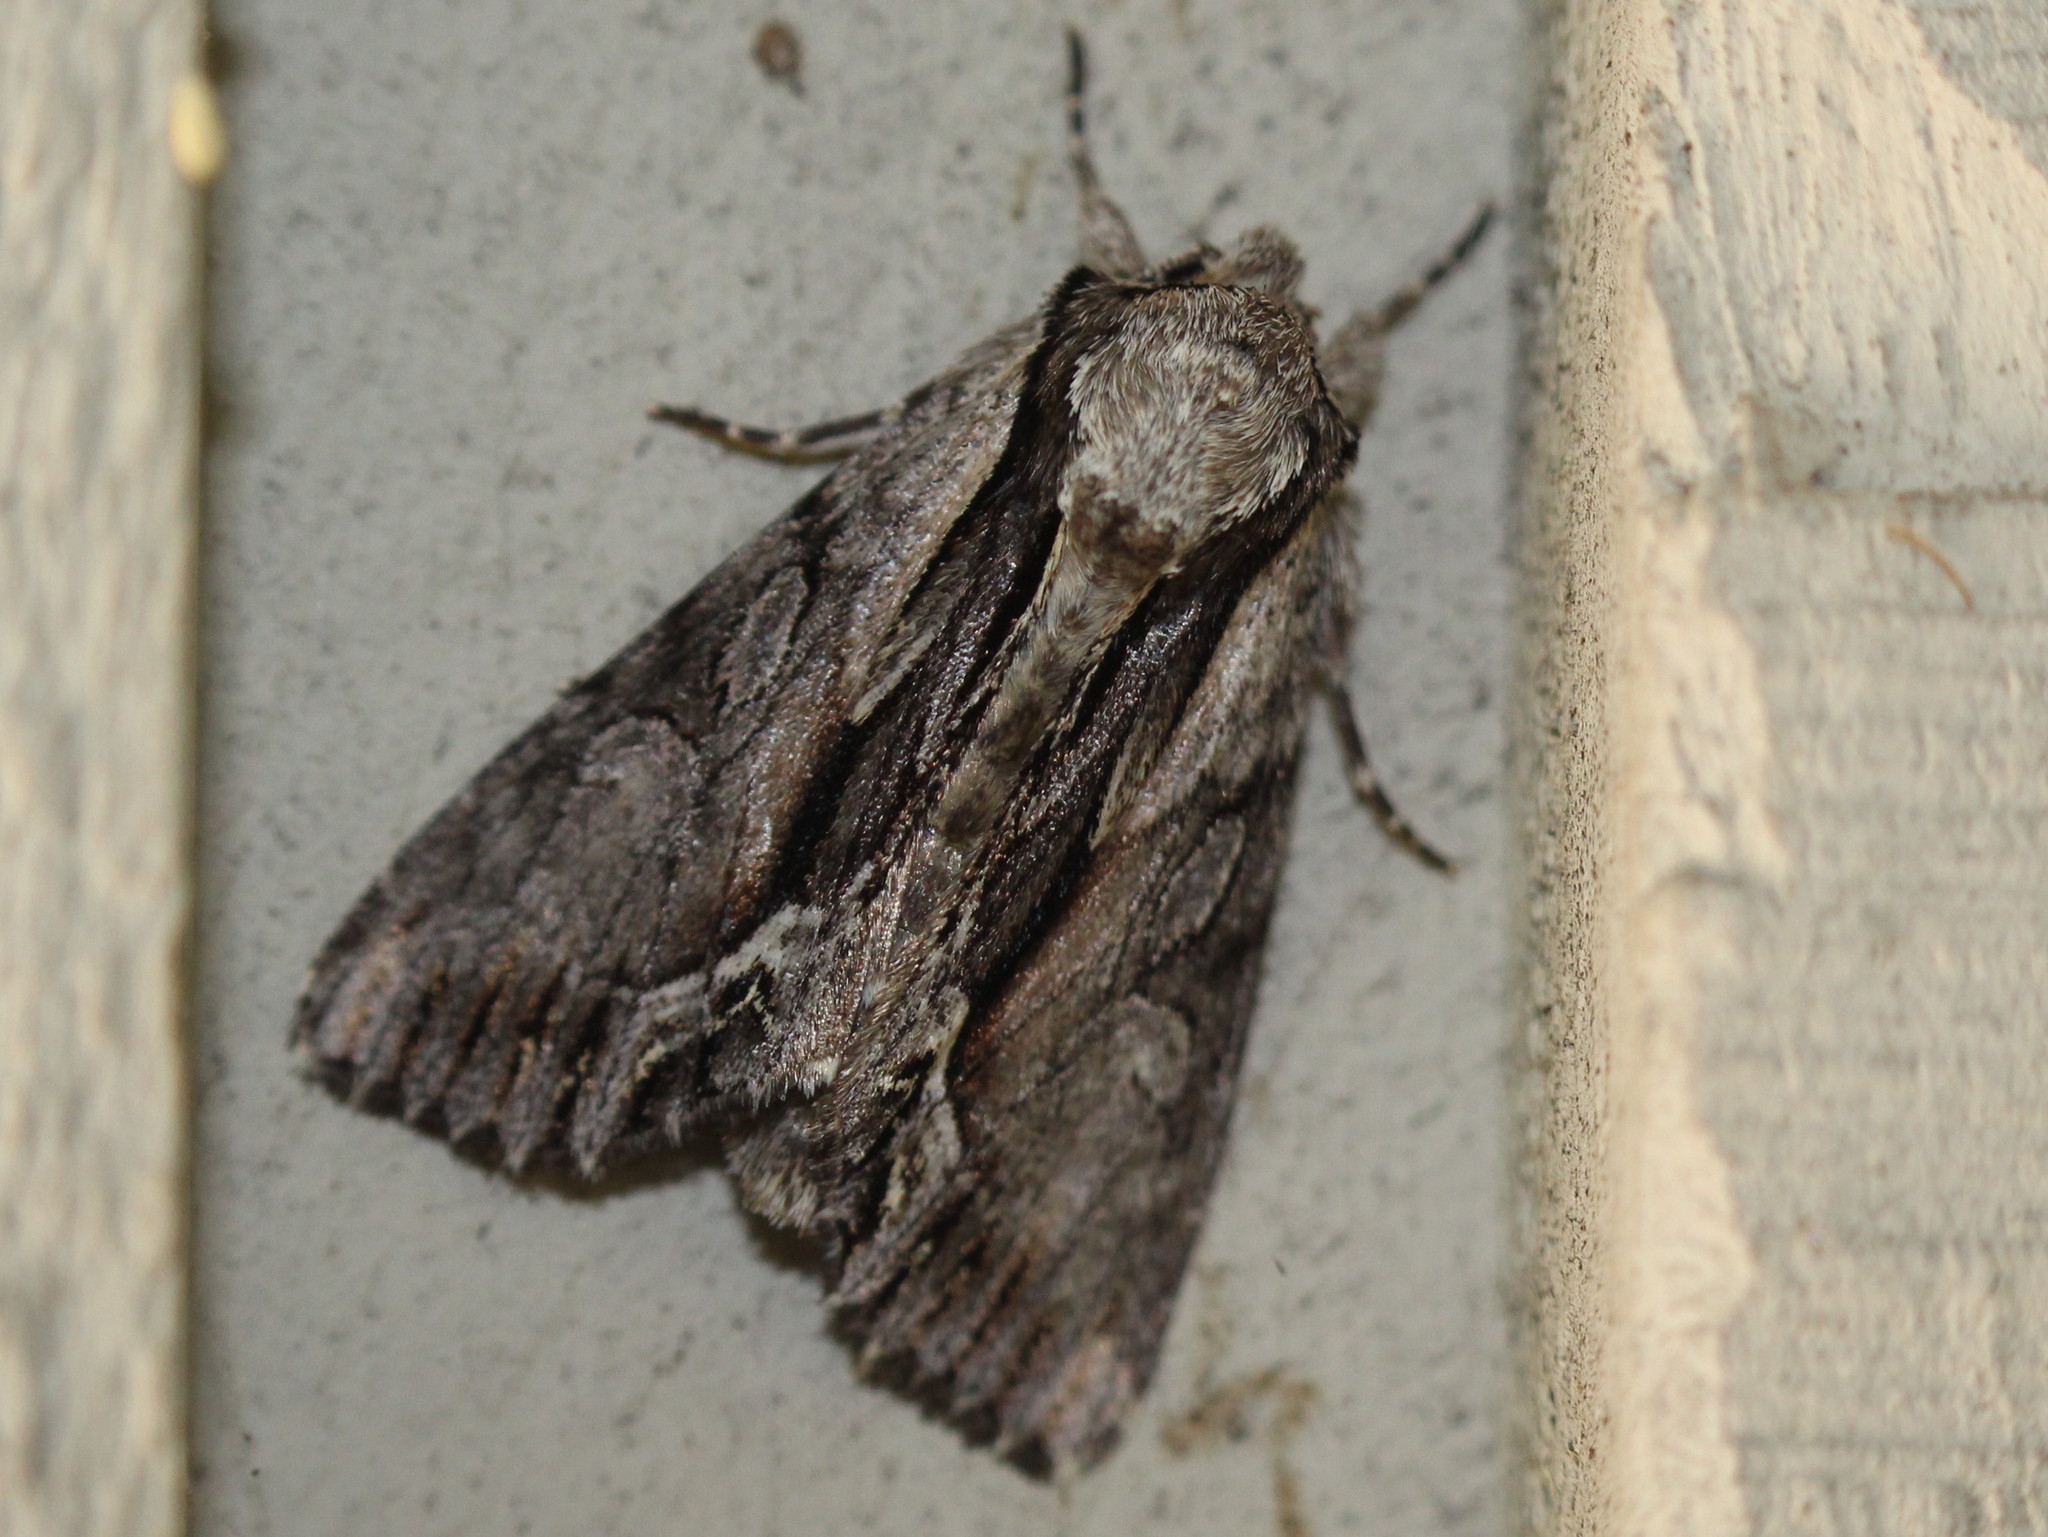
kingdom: Animalia
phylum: Arthropoda
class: Insecta
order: Lepidoptera
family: Noctuidae
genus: Hyppa
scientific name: Hyppa xylinoides
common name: Common hyppa moth
